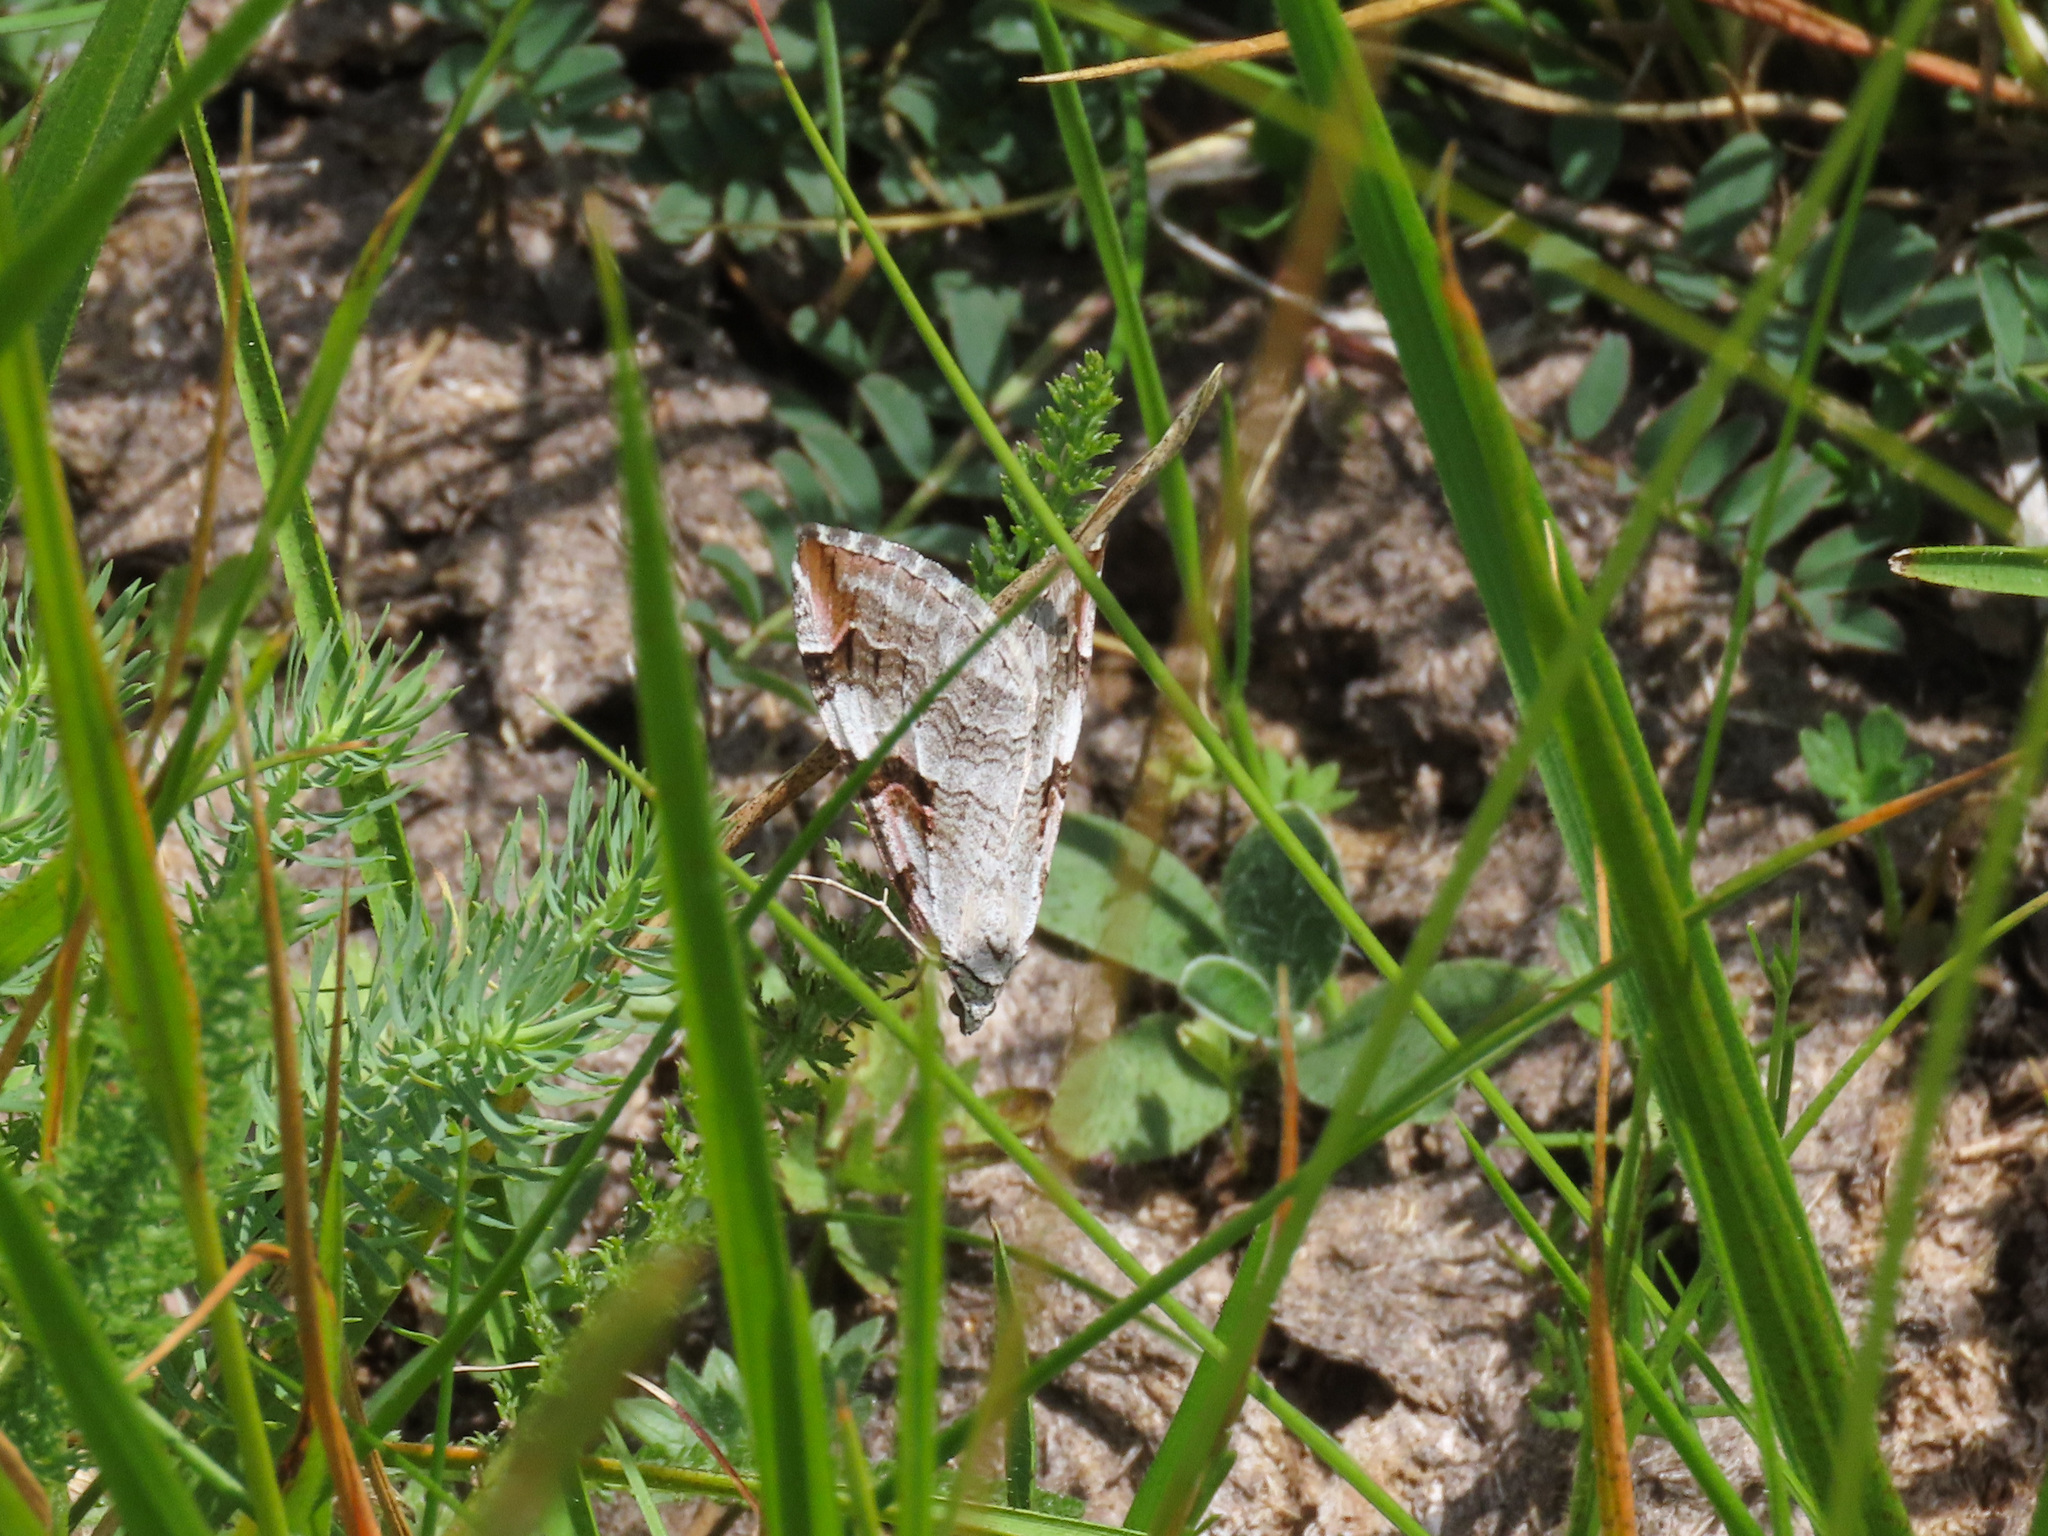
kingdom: Animalia
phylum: Arthropoda
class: Insecta
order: Lepidoptera
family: Geometridae
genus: Aplocera
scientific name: Aplocera praeformata
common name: Purple treble-bar
